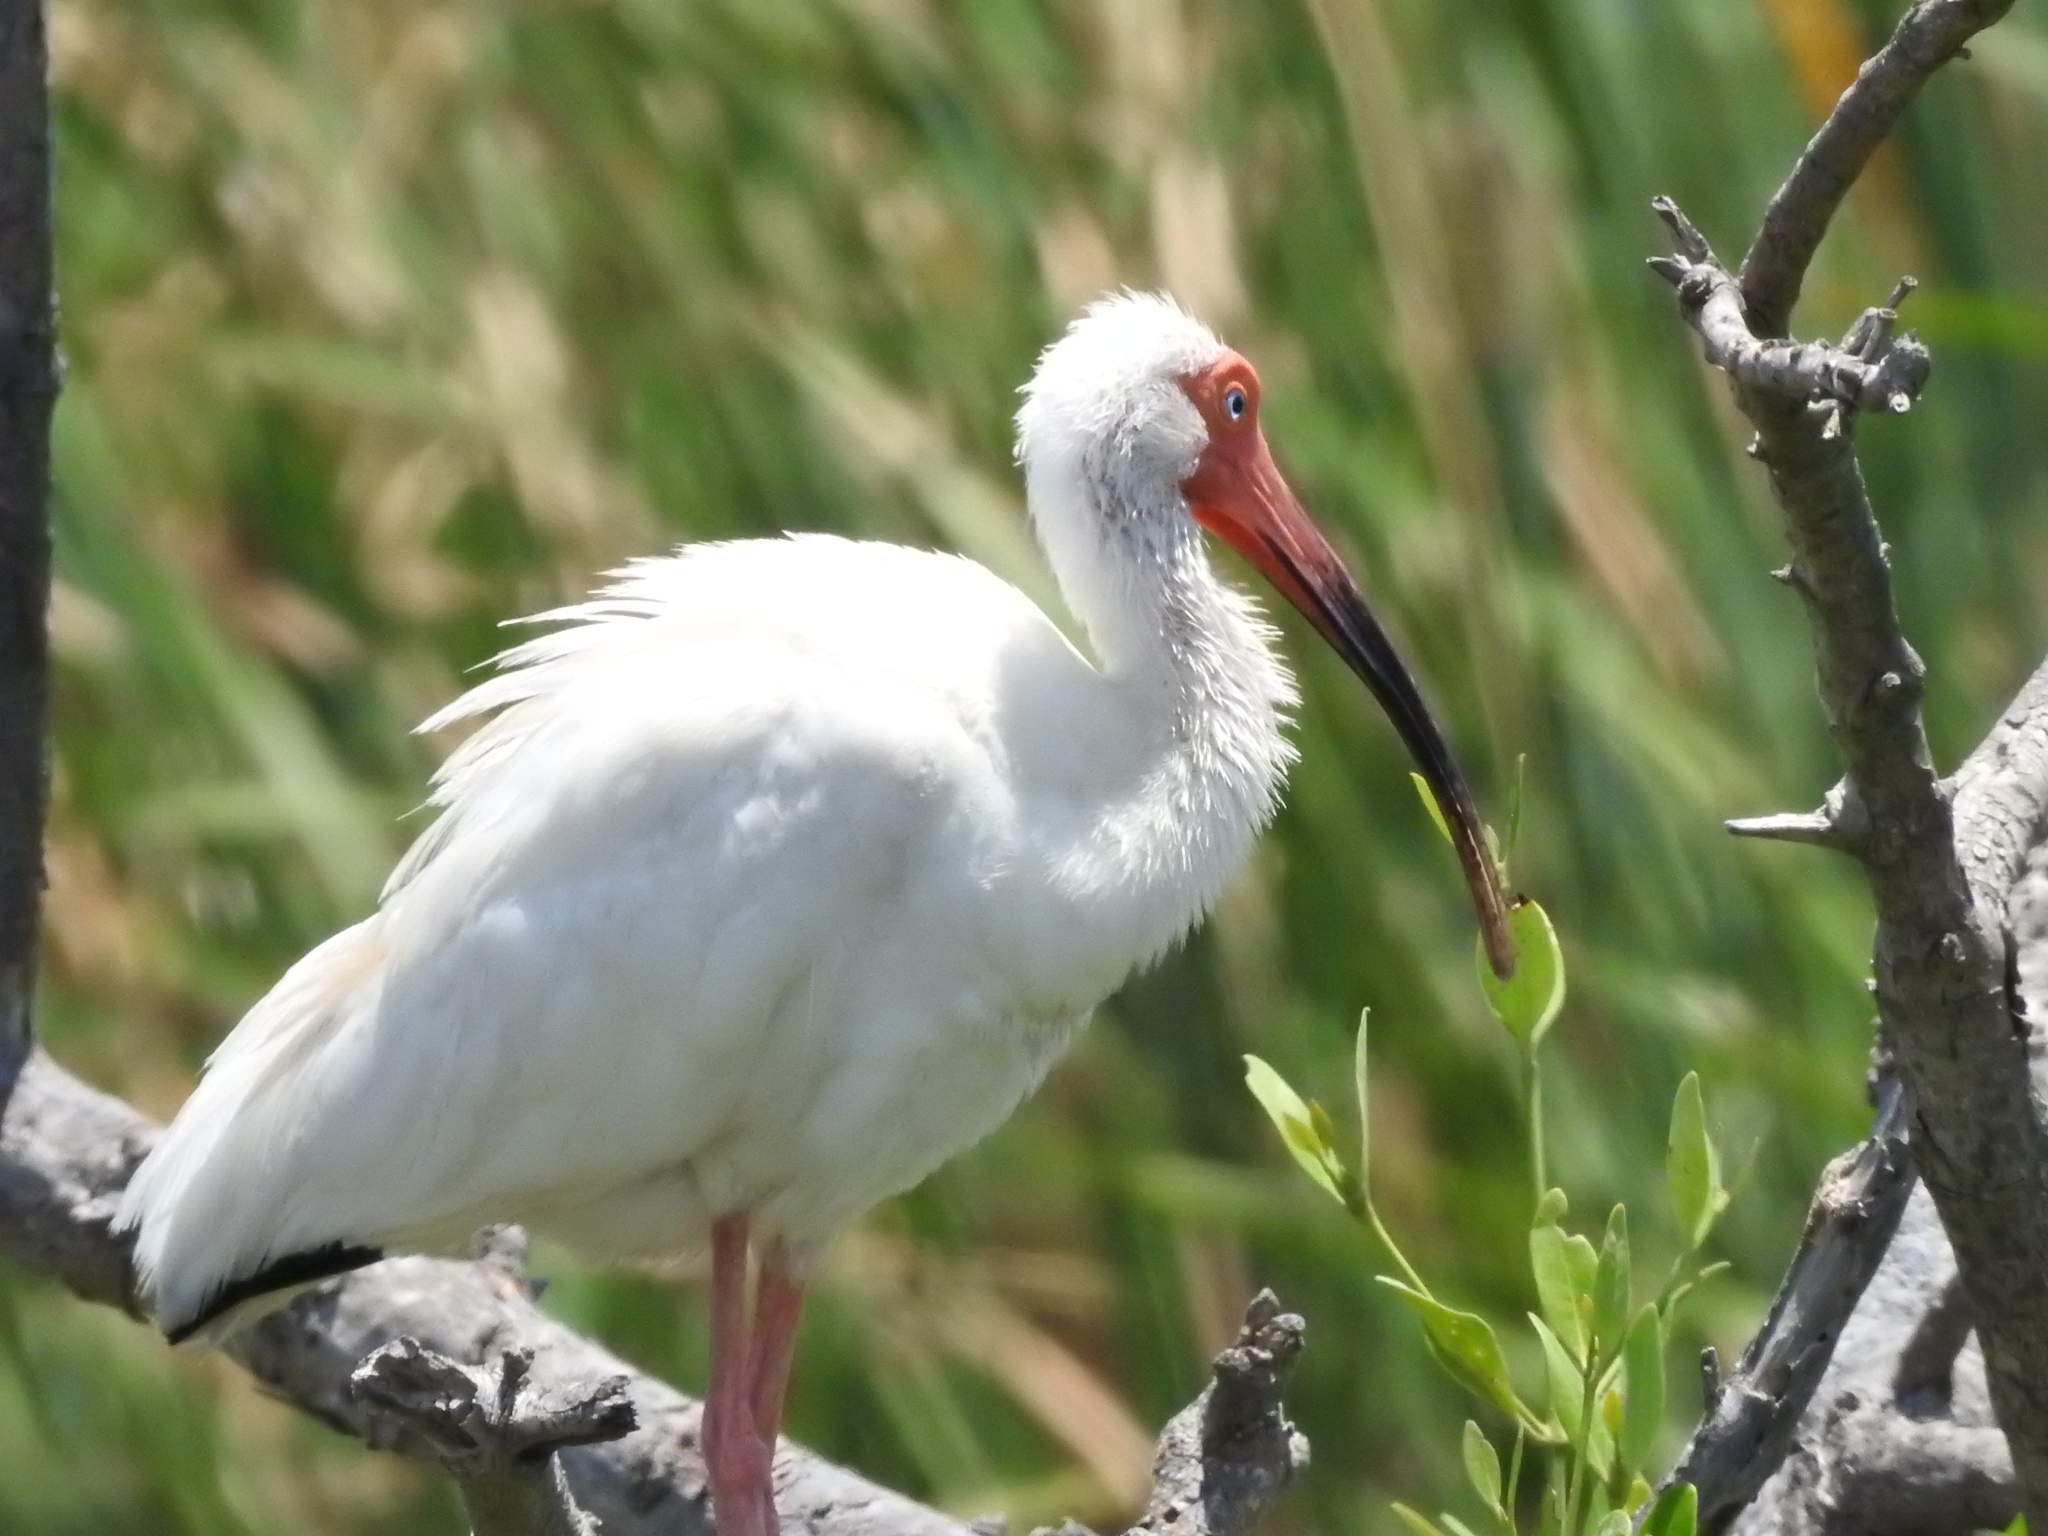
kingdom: Animalia
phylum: Chordata
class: Aves
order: Pelecaniformes
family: Threskiornithidae
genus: Eudocimus
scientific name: Eudocimus albus
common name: White ibis
